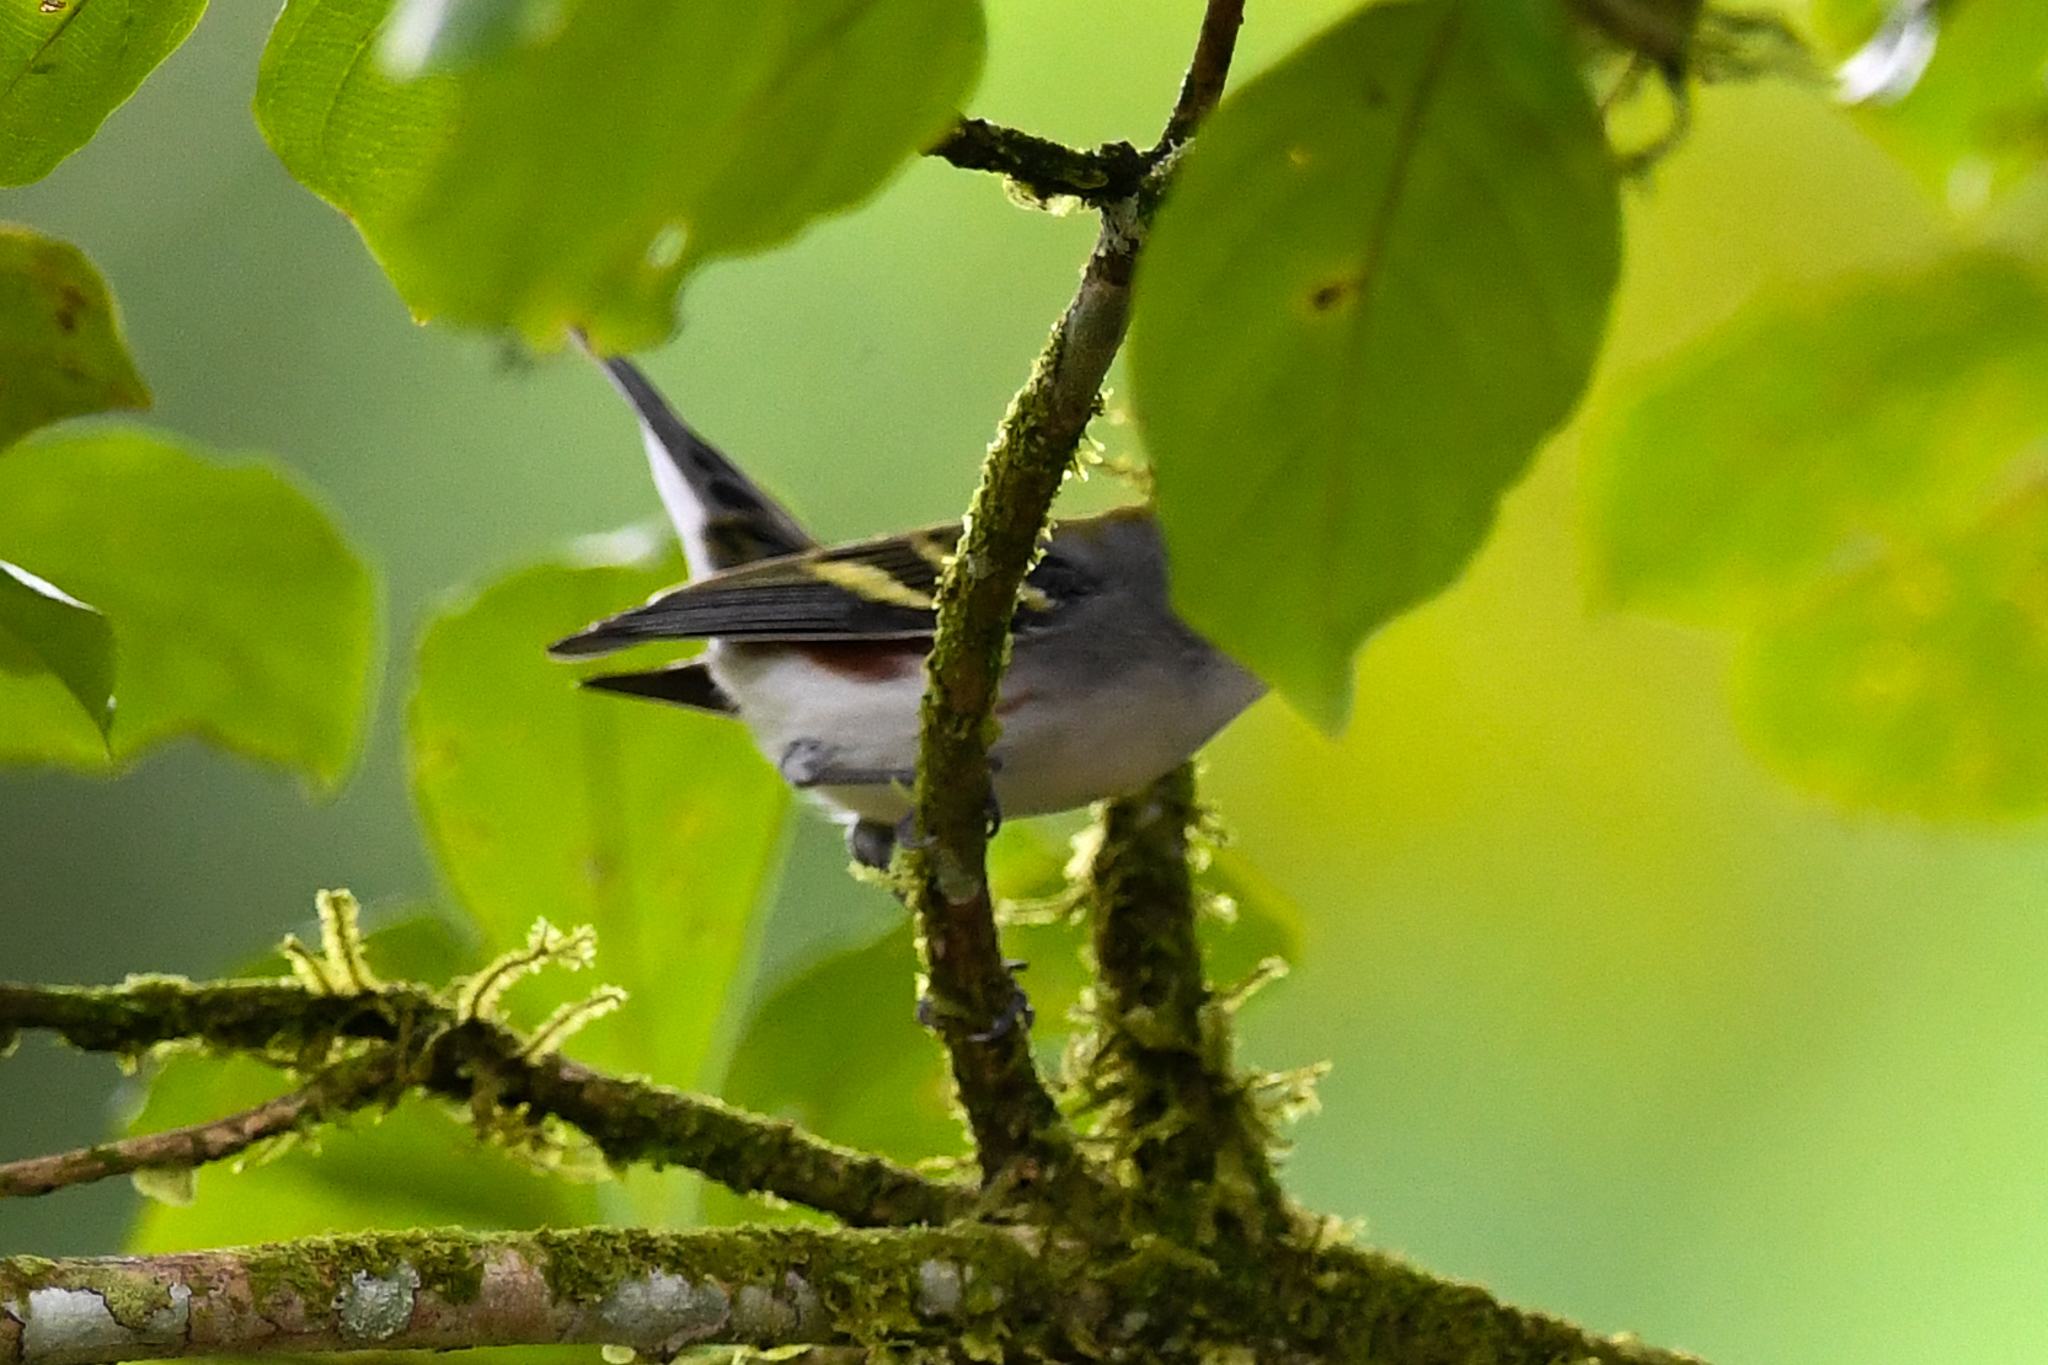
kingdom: Animalia
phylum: Chordata
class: Aves
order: Passeriformes
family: Parulidae
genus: Setophaga
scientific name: Setophaga pensylvanica
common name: Chestnut-sided warbler
